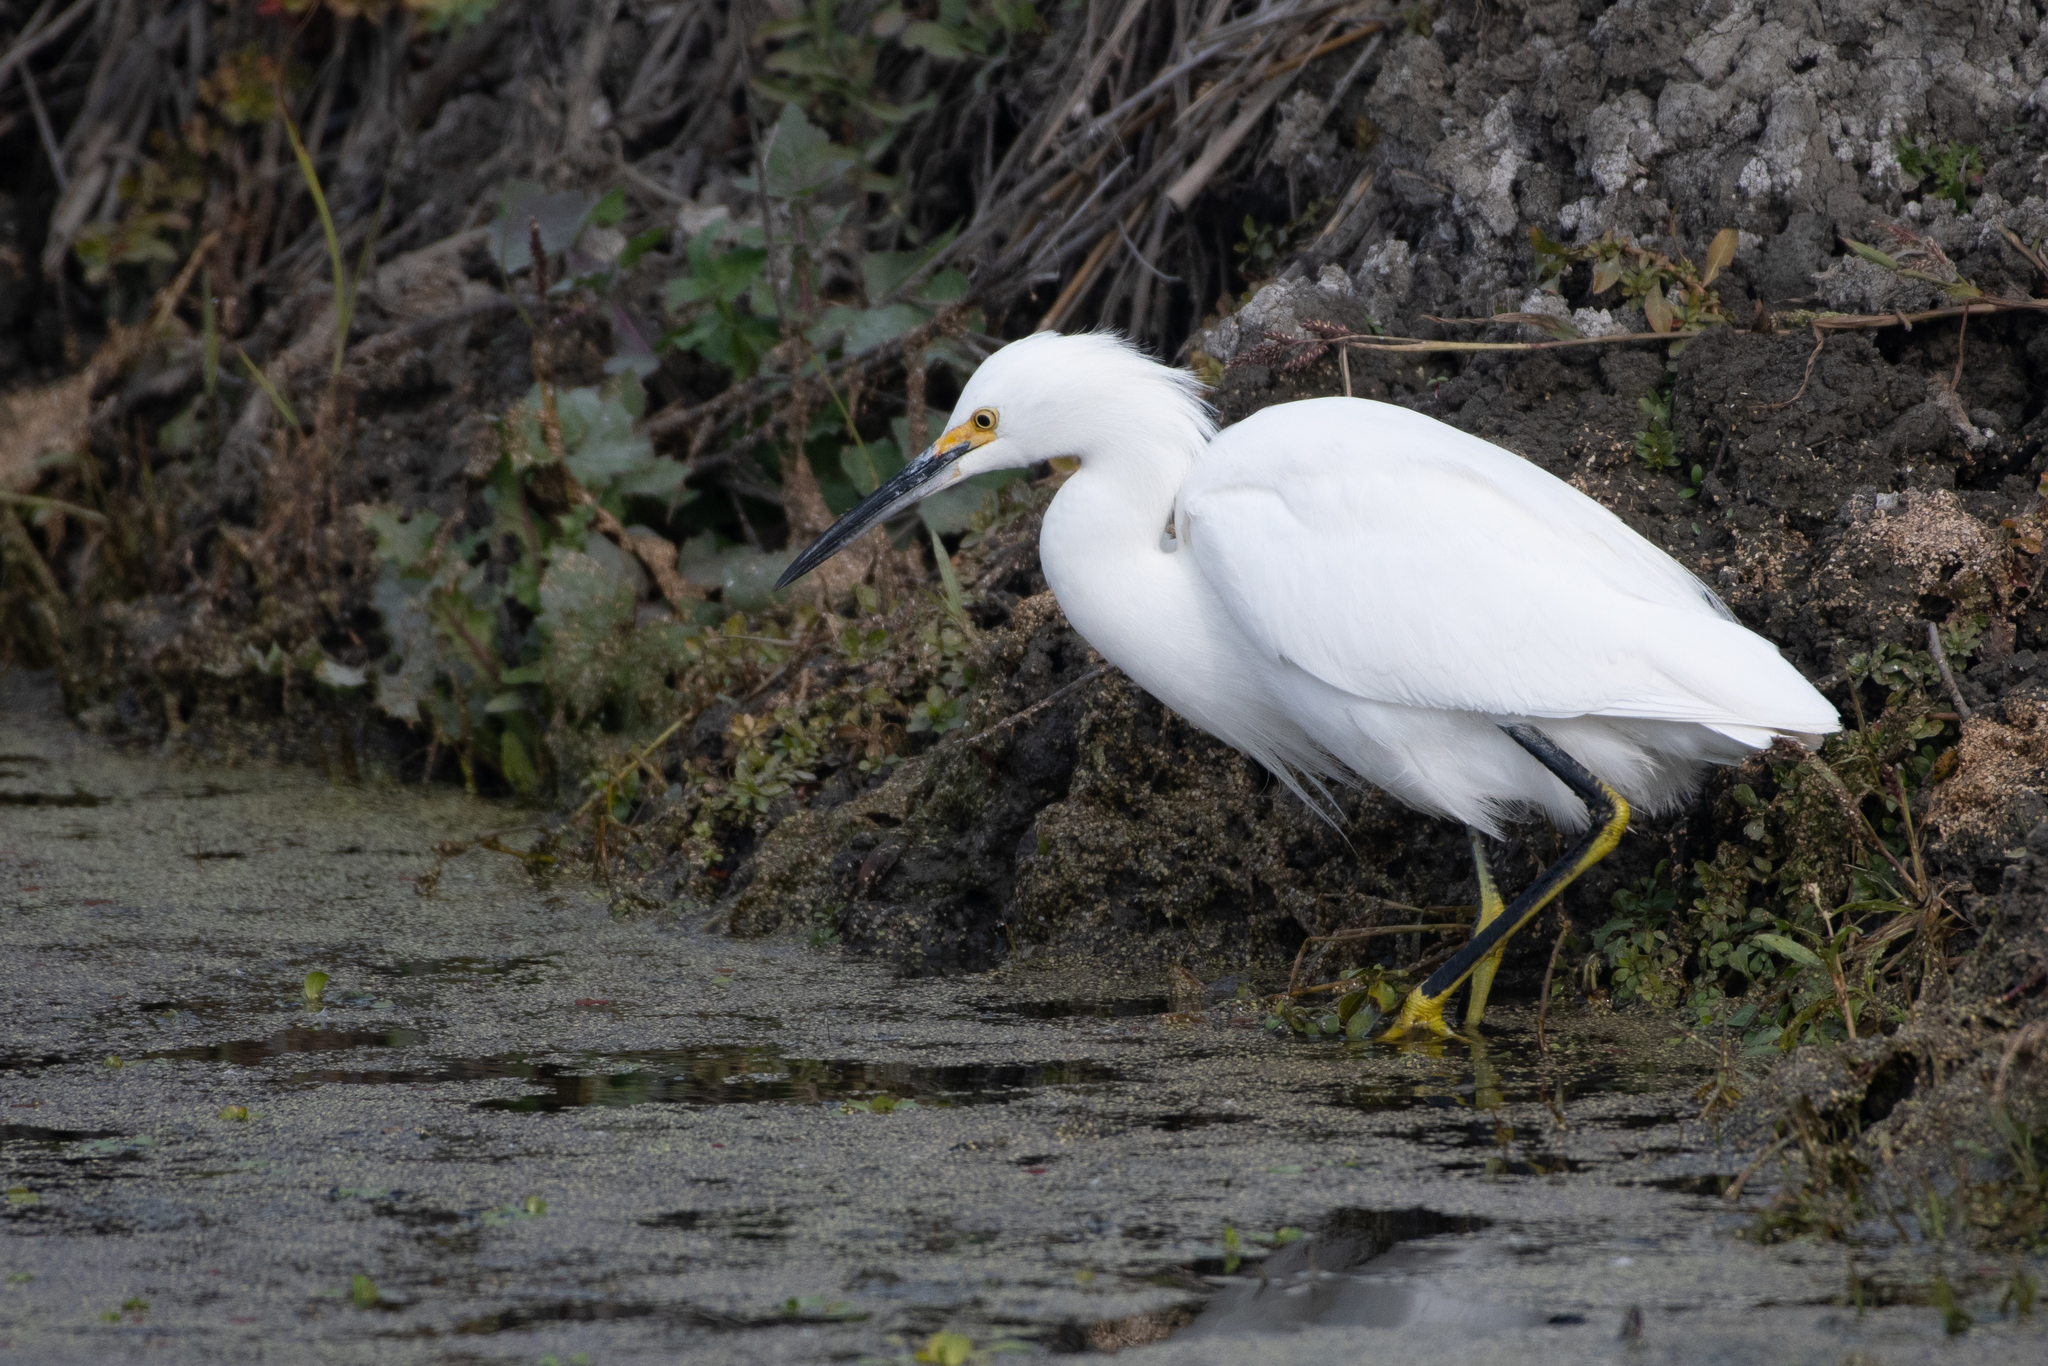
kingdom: Animalia
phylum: Chordata
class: Aves
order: Pelecaniformes
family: Ardeidae
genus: Egretta
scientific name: Egretta thula
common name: Snowy egret
